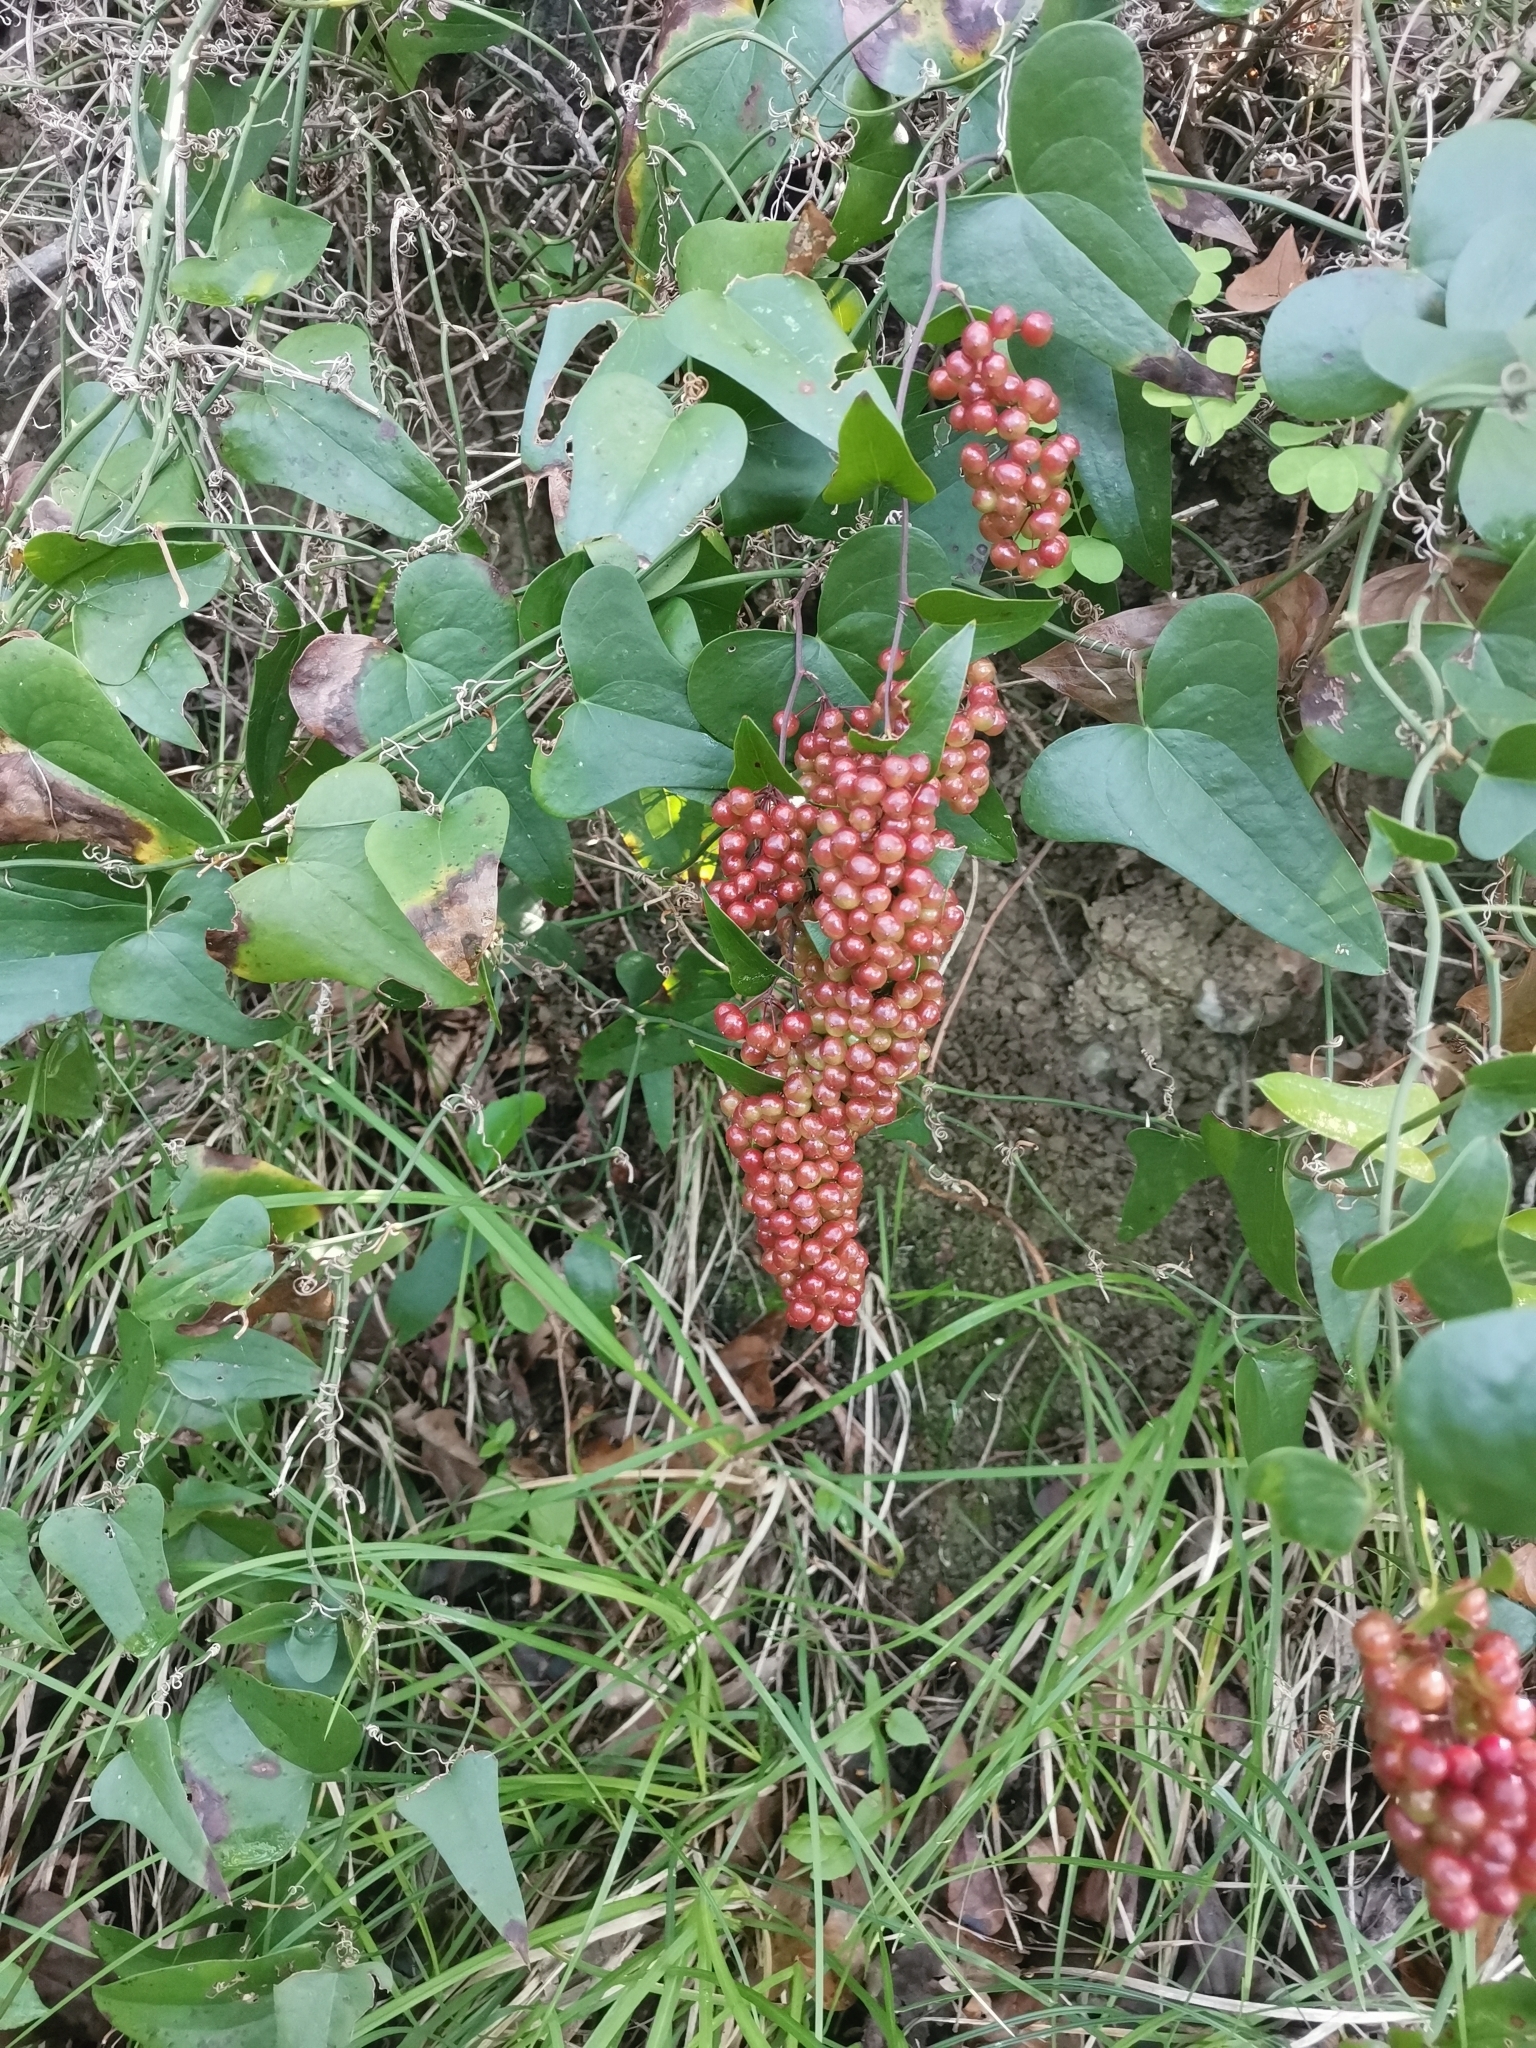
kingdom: Plantae
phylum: Tracheophyta
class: Liliopsida
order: Liliales
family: Smilacaceae
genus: Smilax
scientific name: Smilax aspera
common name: Common smilax
